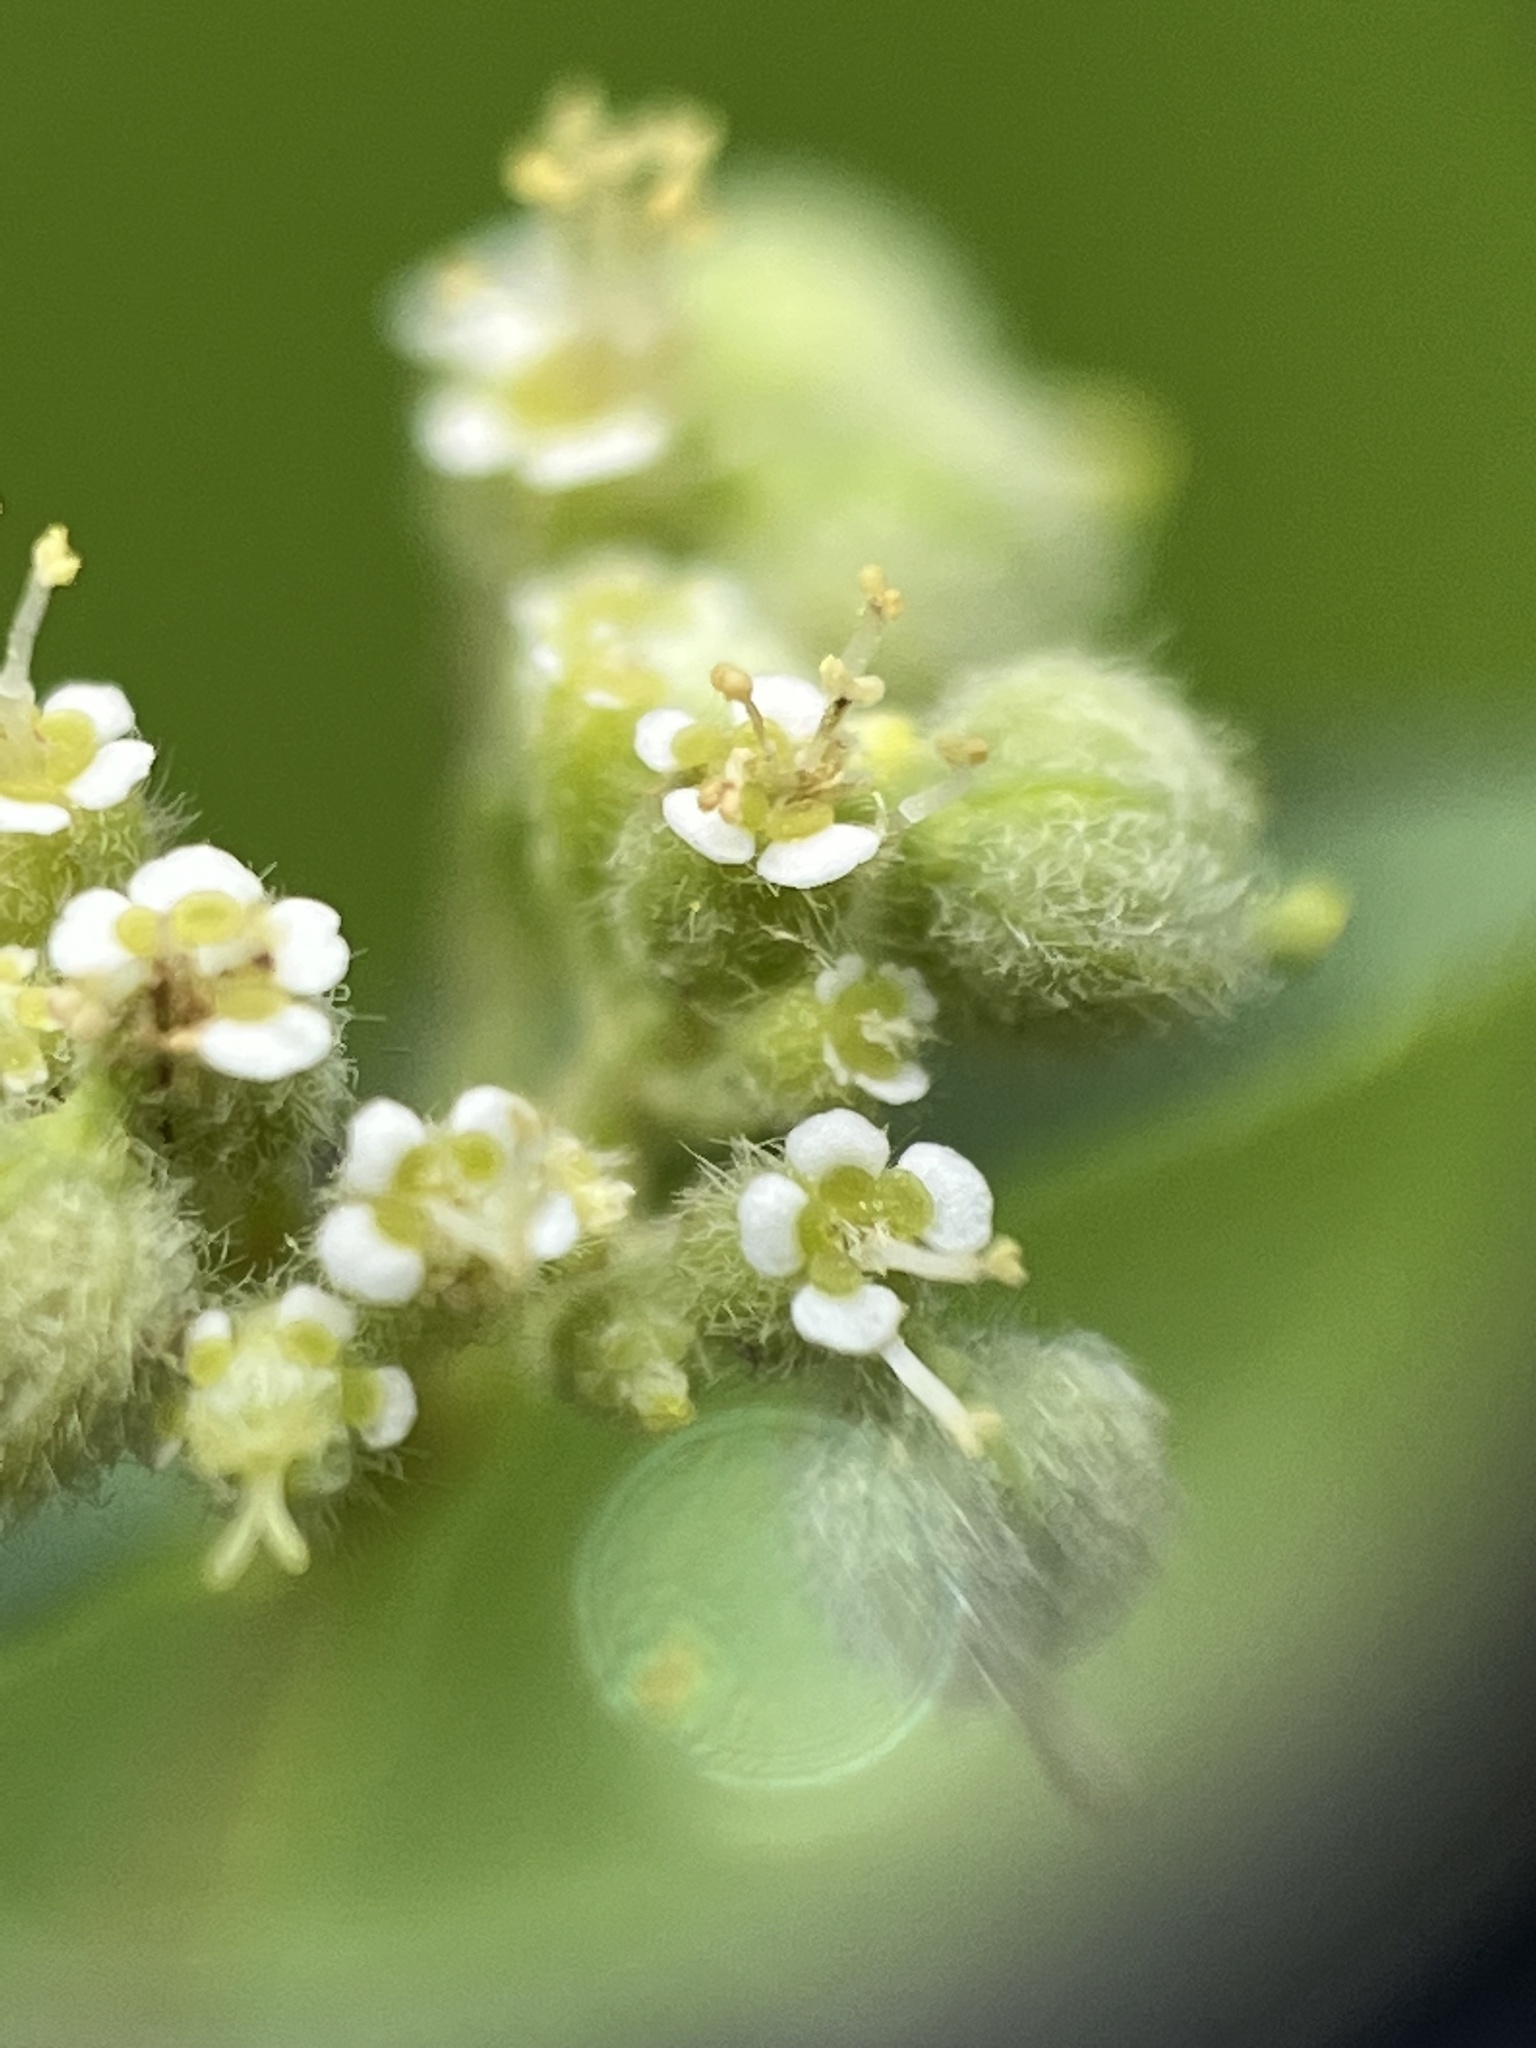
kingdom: Plantae
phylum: Tracheophyta
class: Magnoliopsida
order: Malpighiales
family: Euphorbiaceae
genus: Euphorbia
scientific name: Euphorbia lasiocarpa
